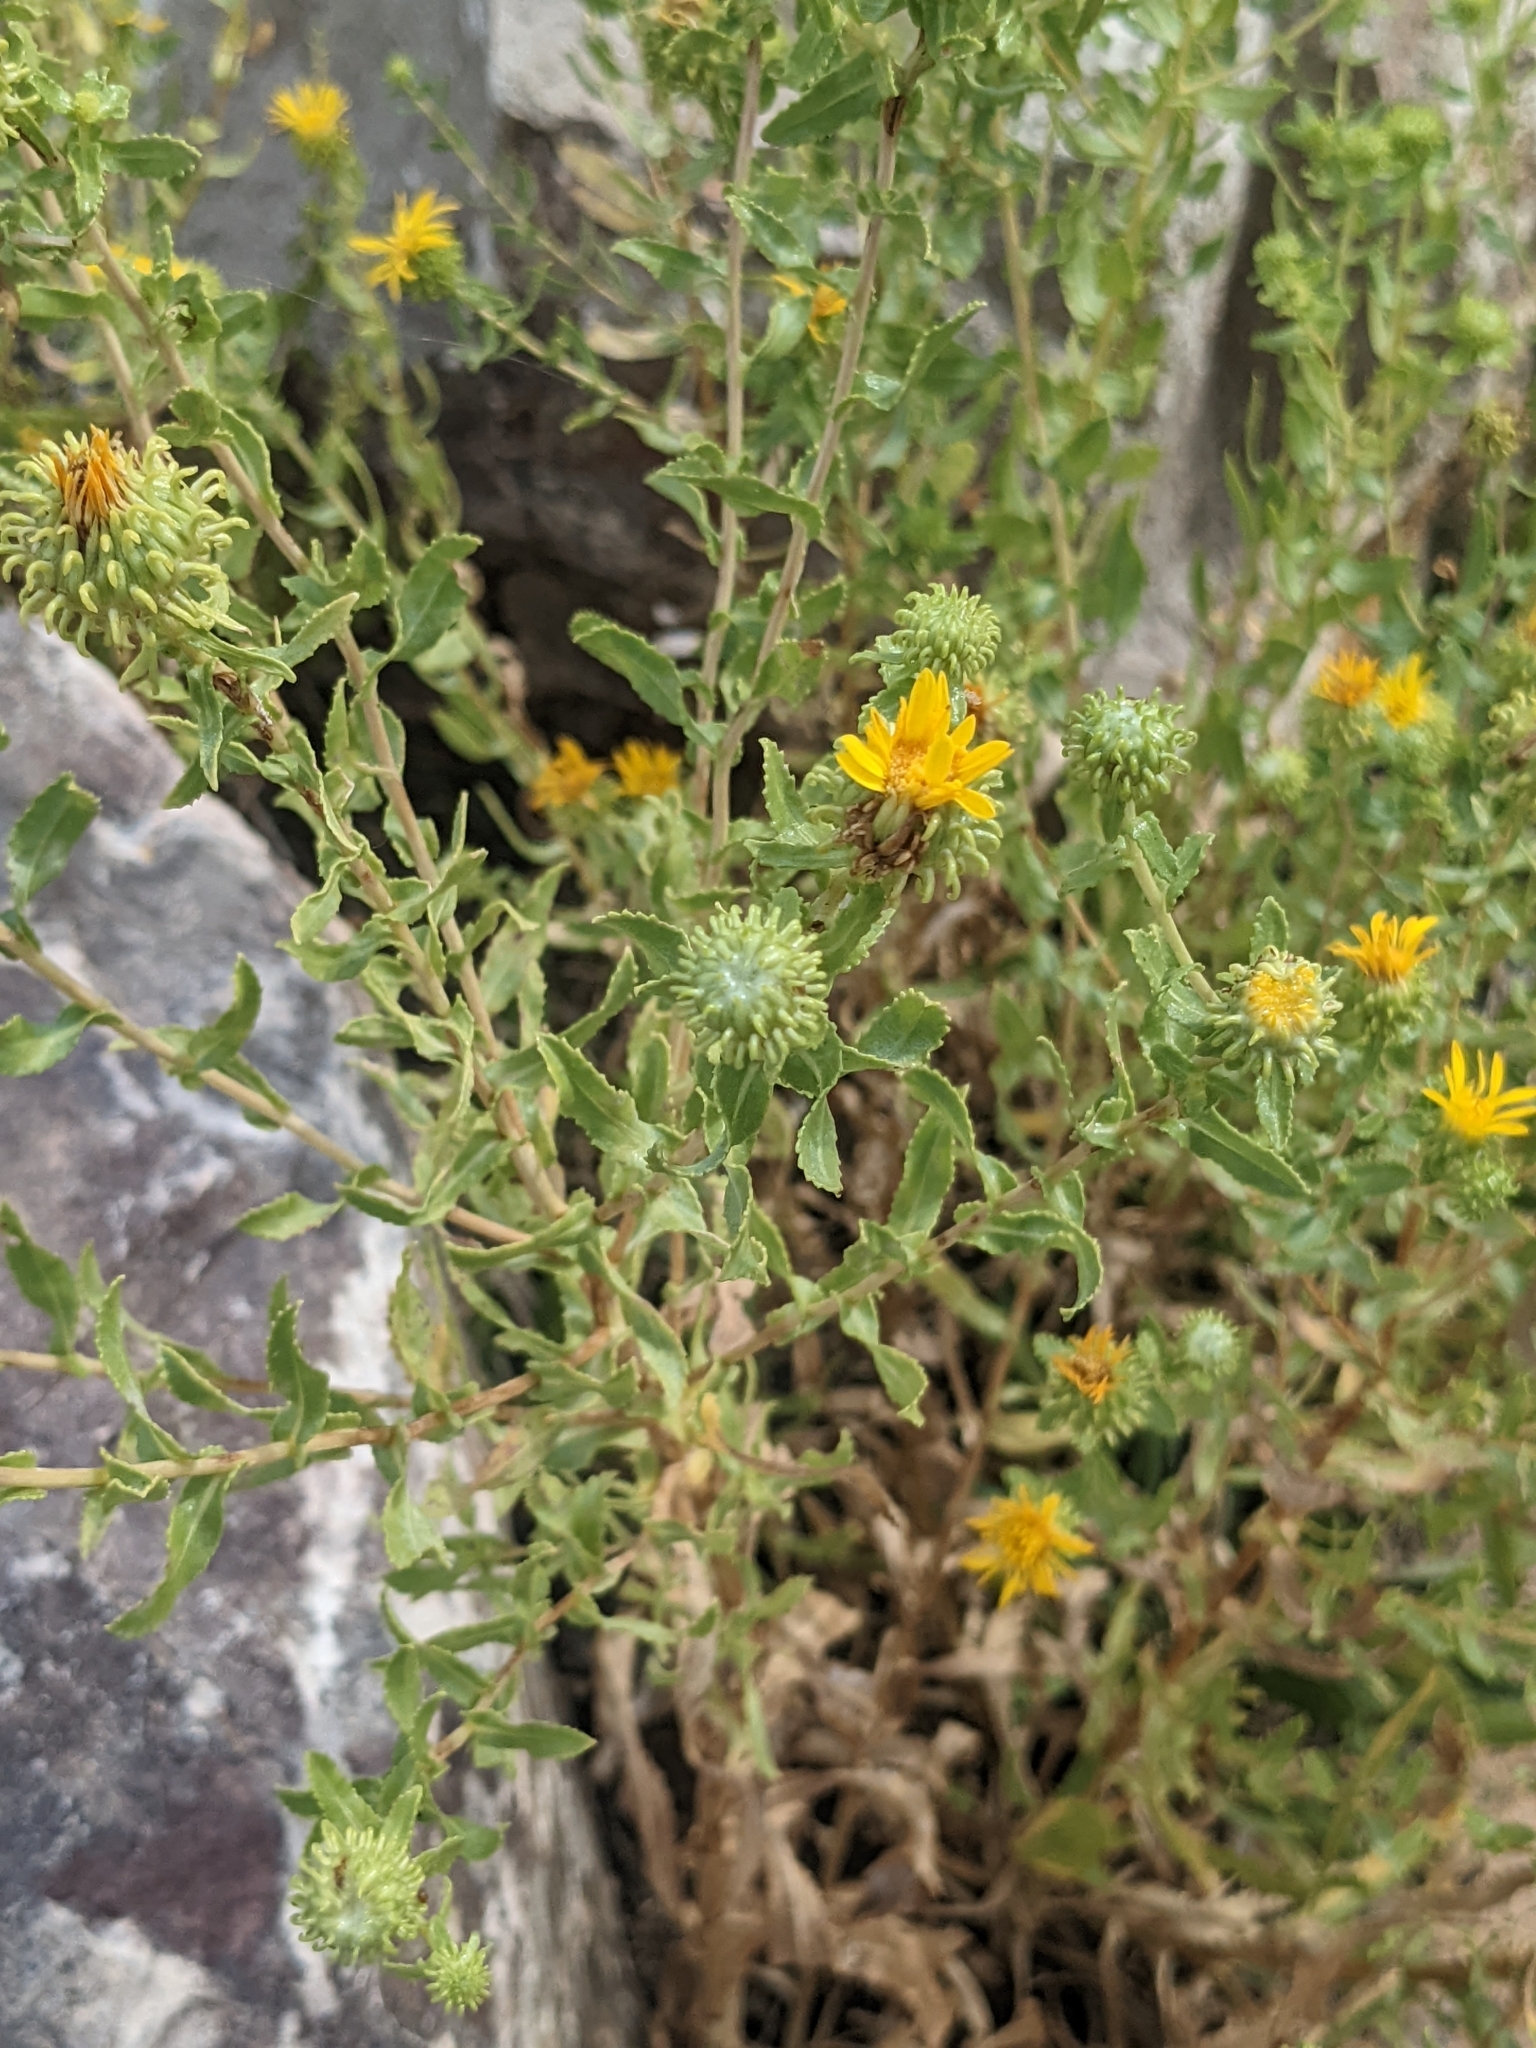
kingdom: Plantae
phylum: Tracheophyta
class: Magnoliopsida
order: Asterales
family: Asteraceae
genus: Grindelia
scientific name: Grindelia squarrosa
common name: Curly-cup gumweed
